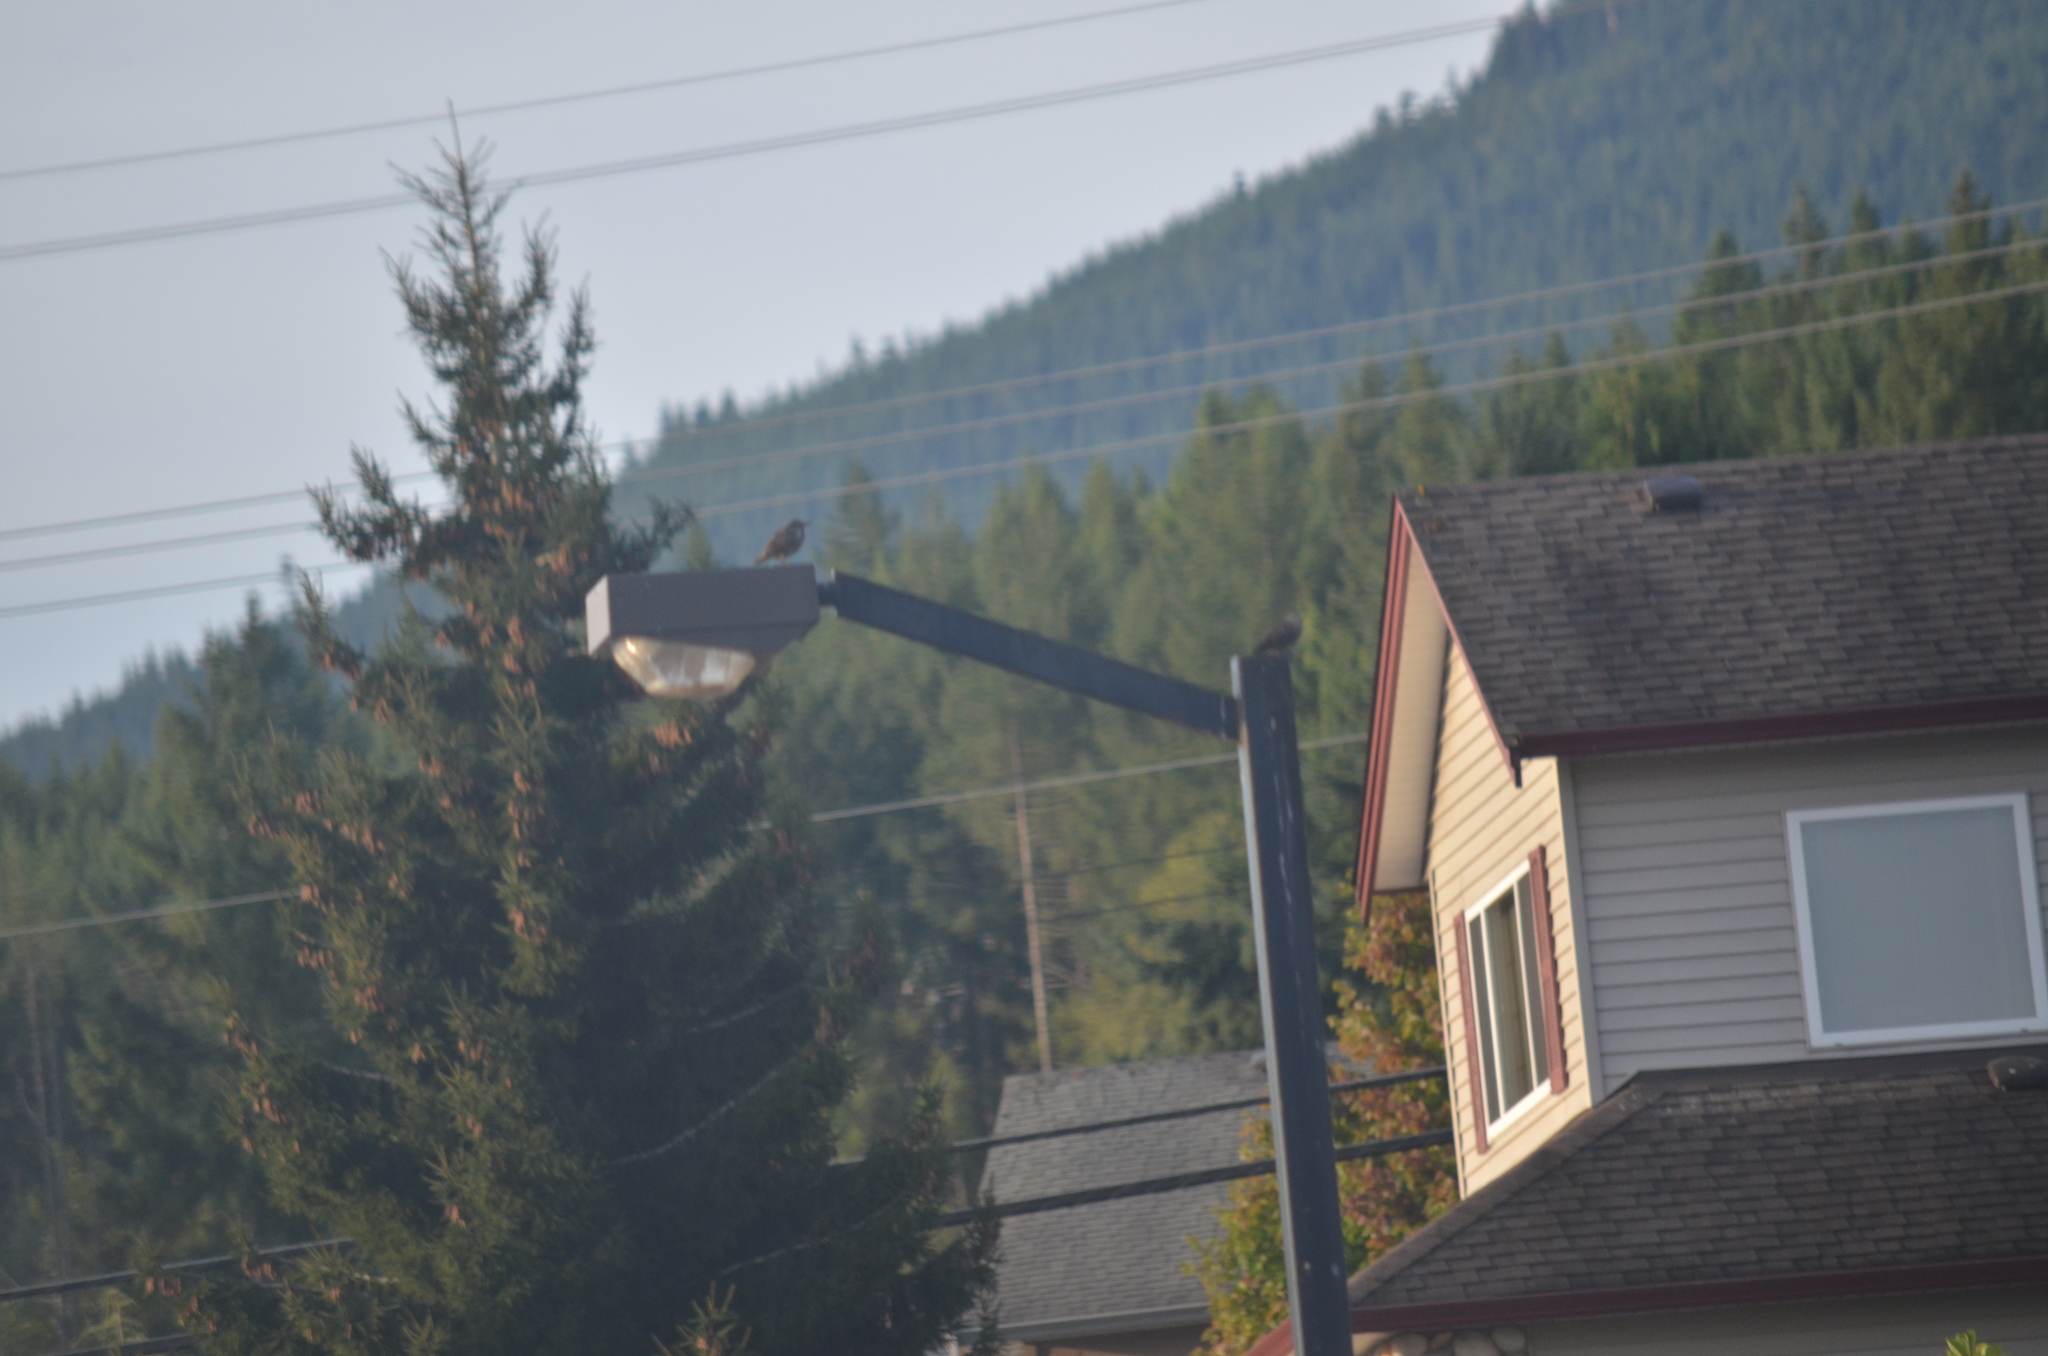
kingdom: Animalia
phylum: Chordata
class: Aves
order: Passeriformes
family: Sturnidae
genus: Sturnus
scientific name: Sturnus vulgaris
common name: Common starling
